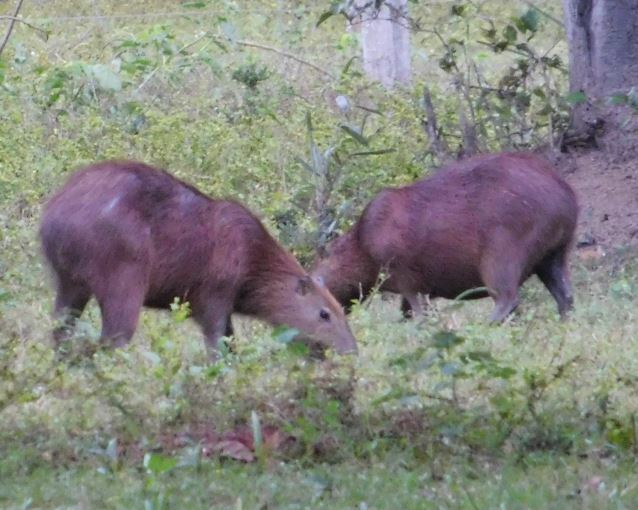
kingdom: Animalia
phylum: Chordata
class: Mammalia
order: Rodentia
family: Caviidae
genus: Hydrochoerus
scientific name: Hydrochoerus hydrochaeris
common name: Capybara
